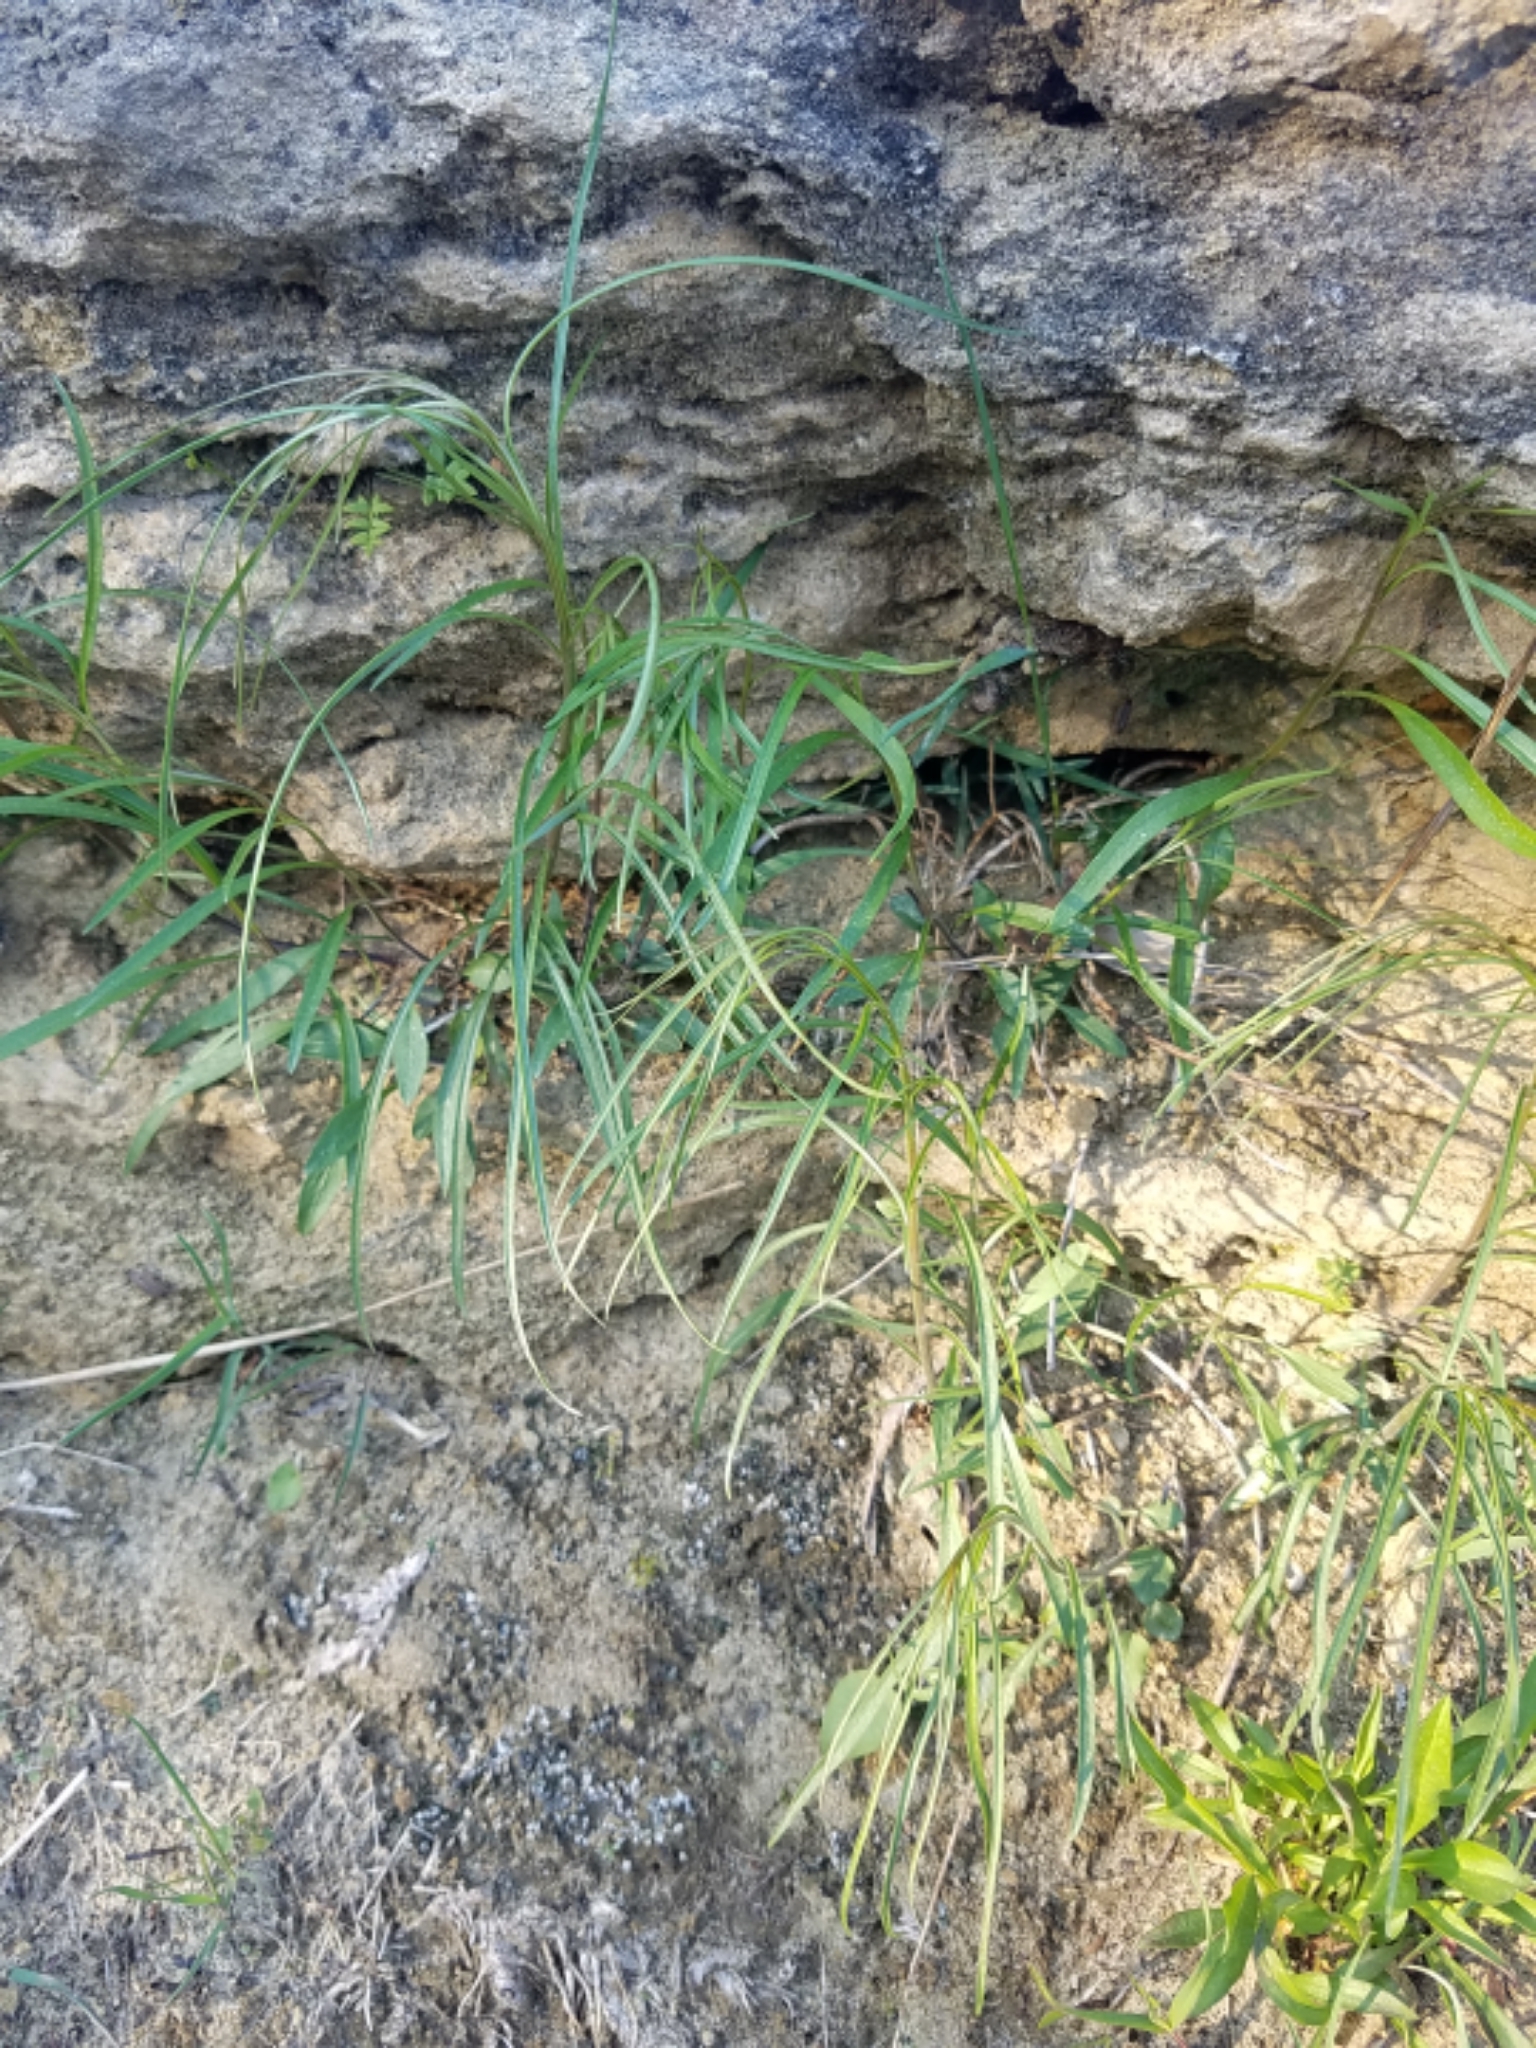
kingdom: Plantae
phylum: Tracheophyta
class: Magnoliopsida
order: Asterales
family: Campanulaceae
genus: Campanula
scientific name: Campanula intercedens
